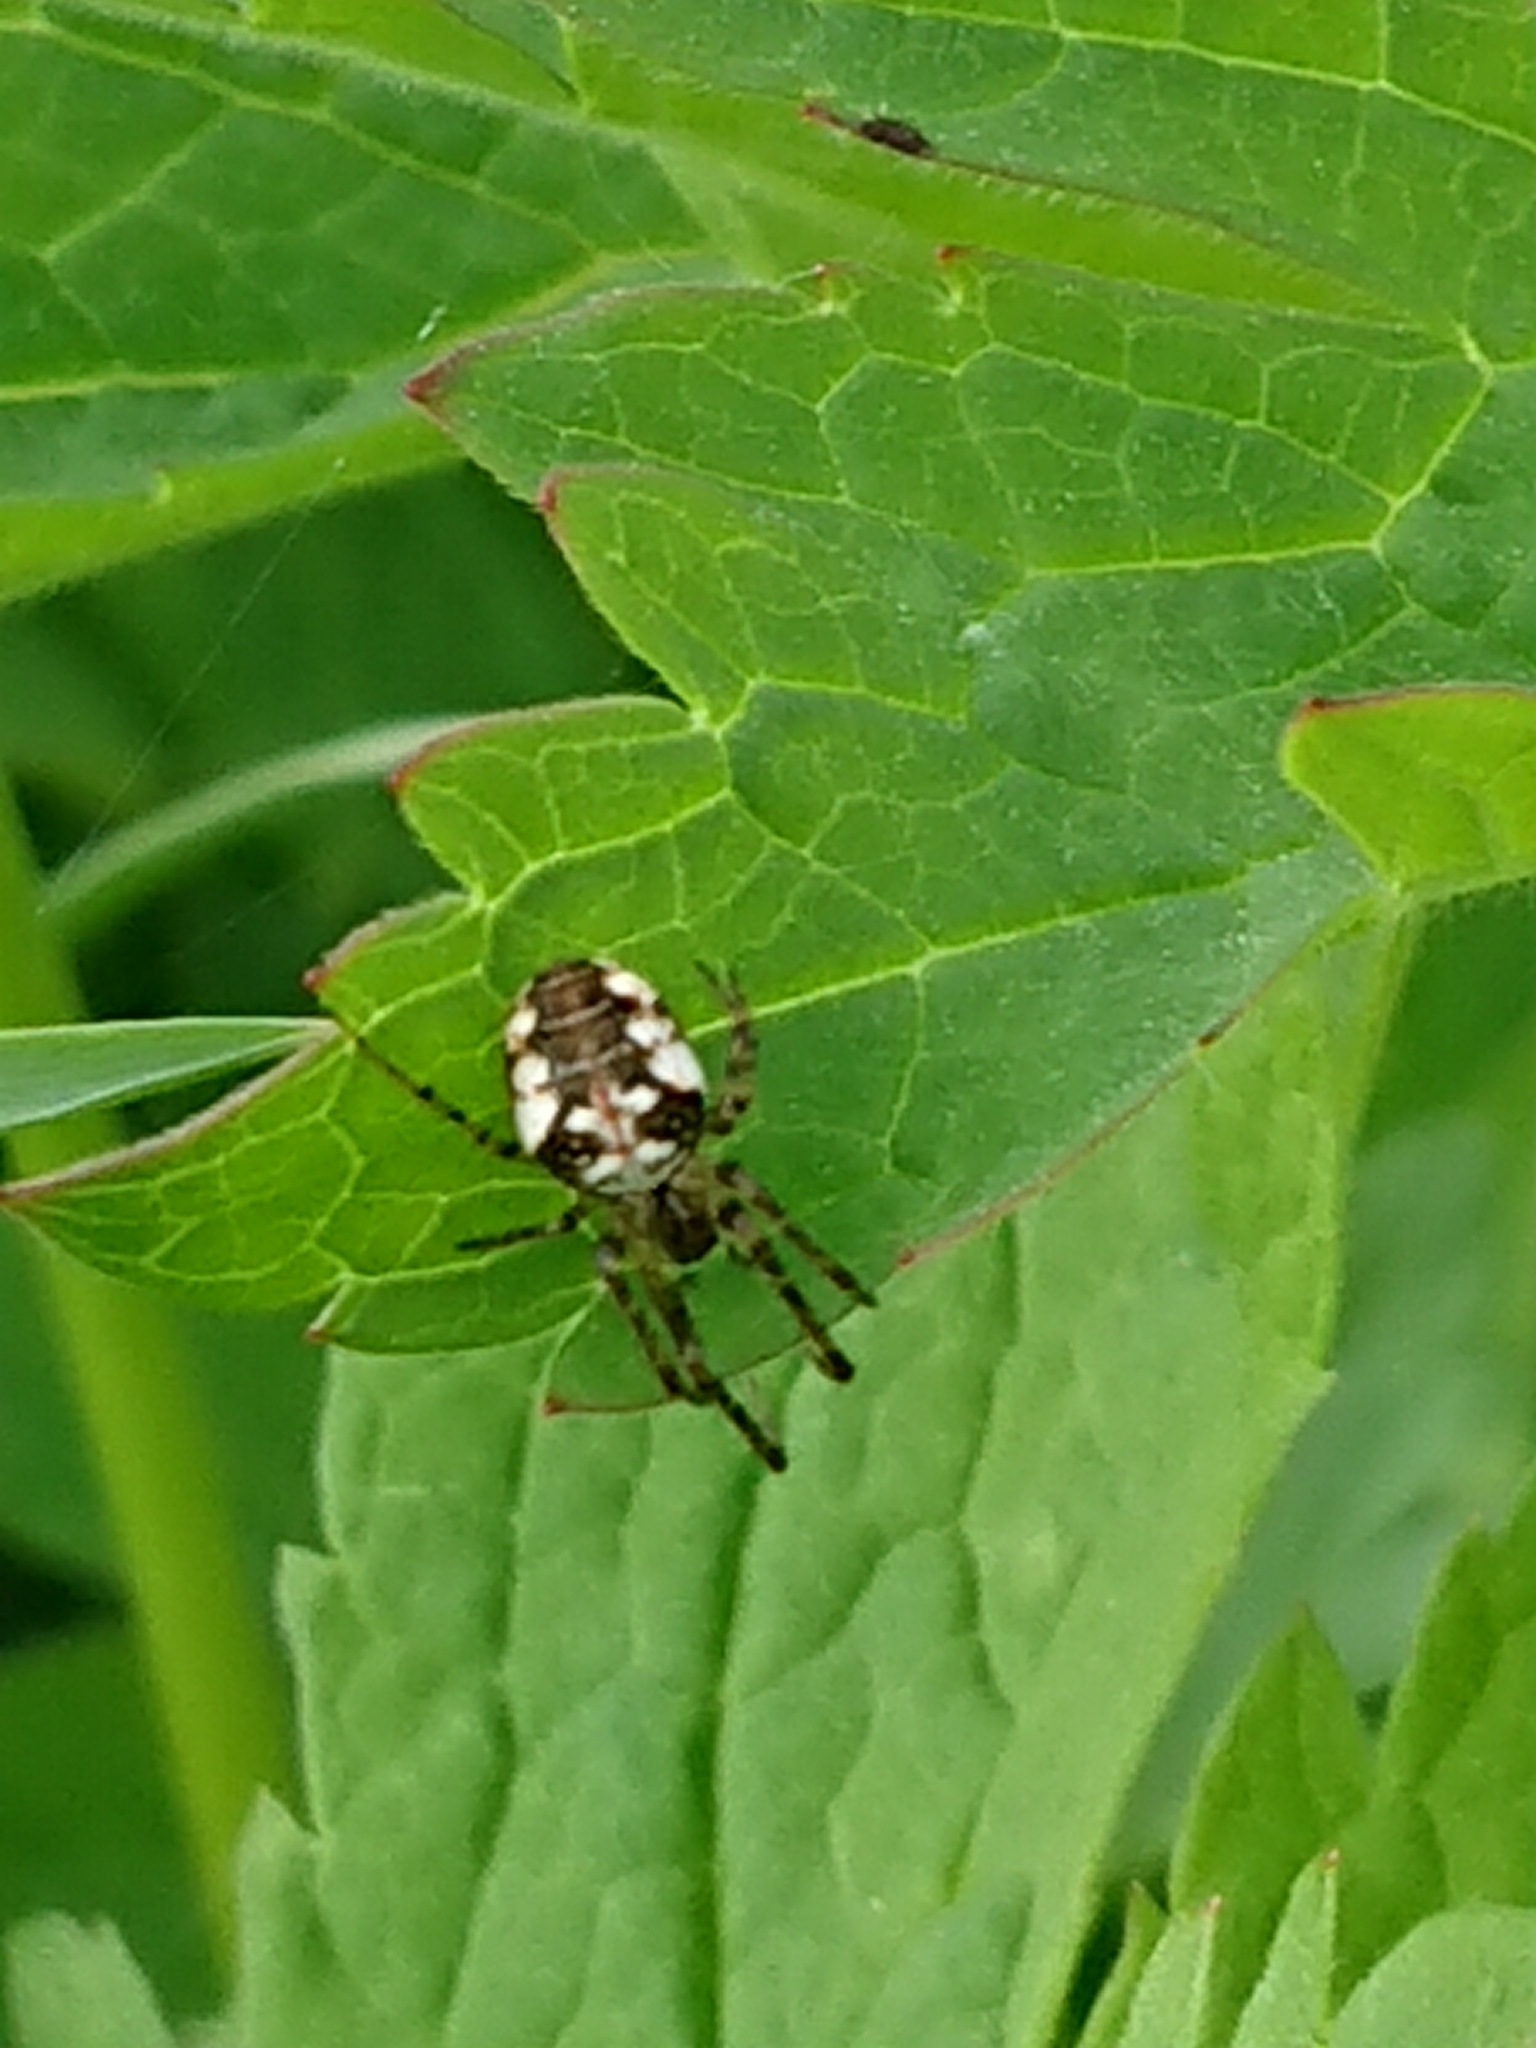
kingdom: Animalia
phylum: Arthropoda
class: Arachnida
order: Araneae
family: Tetragnathidae
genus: Metellina
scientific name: Metellina
